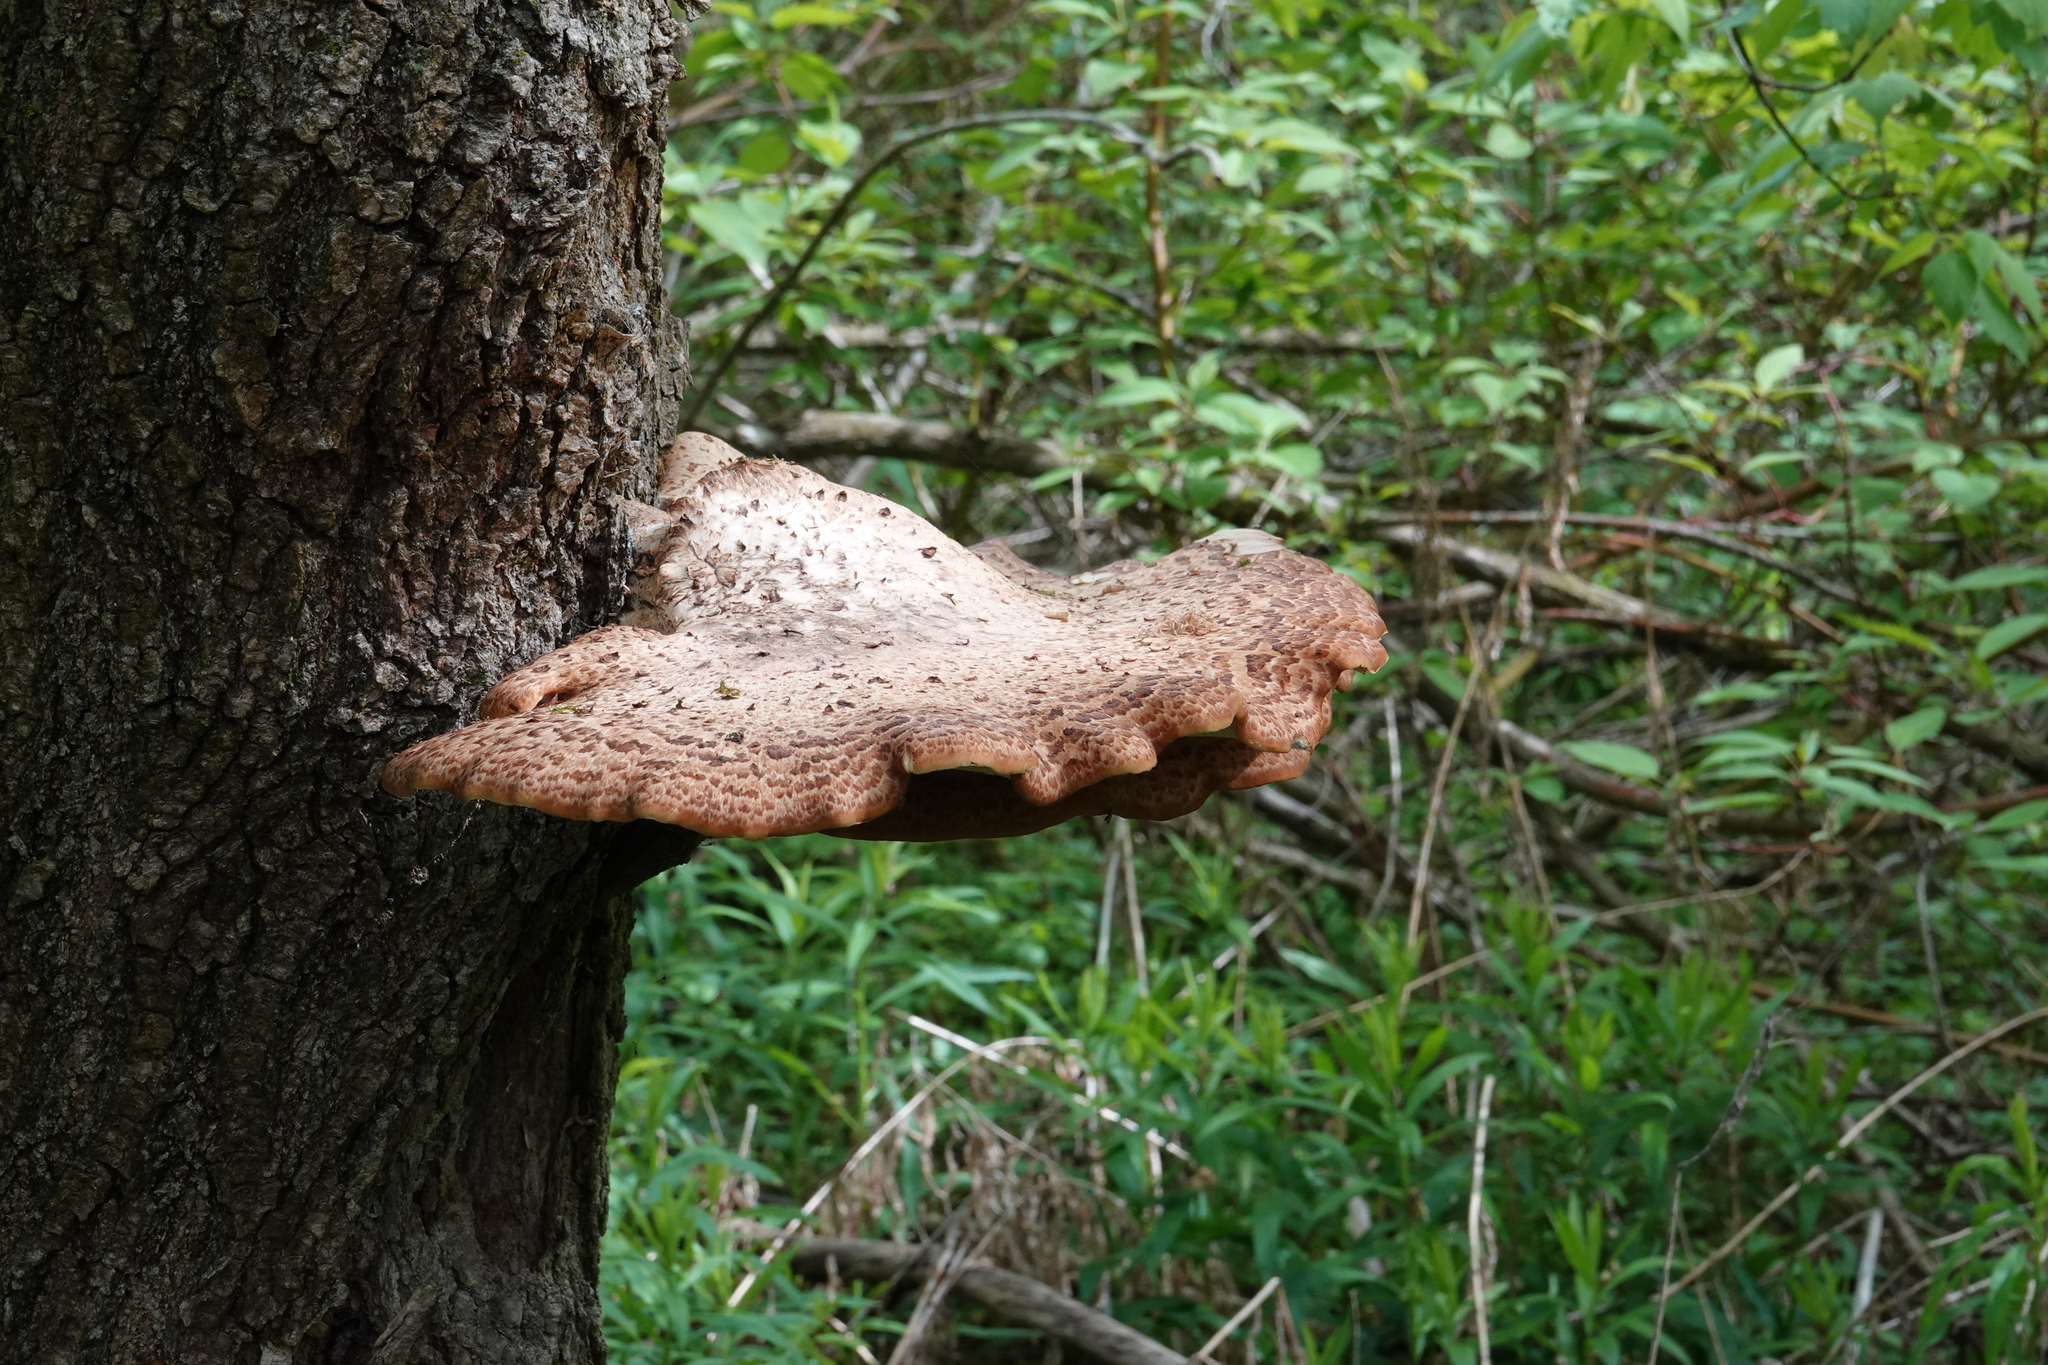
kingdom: Fungi
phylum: Basidiomycota
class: Agaricomycetes
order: Polyporales
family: Polyporaceae
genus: Cerioporus
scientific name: Cerioporus squamosus
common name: Dryad's saddle
